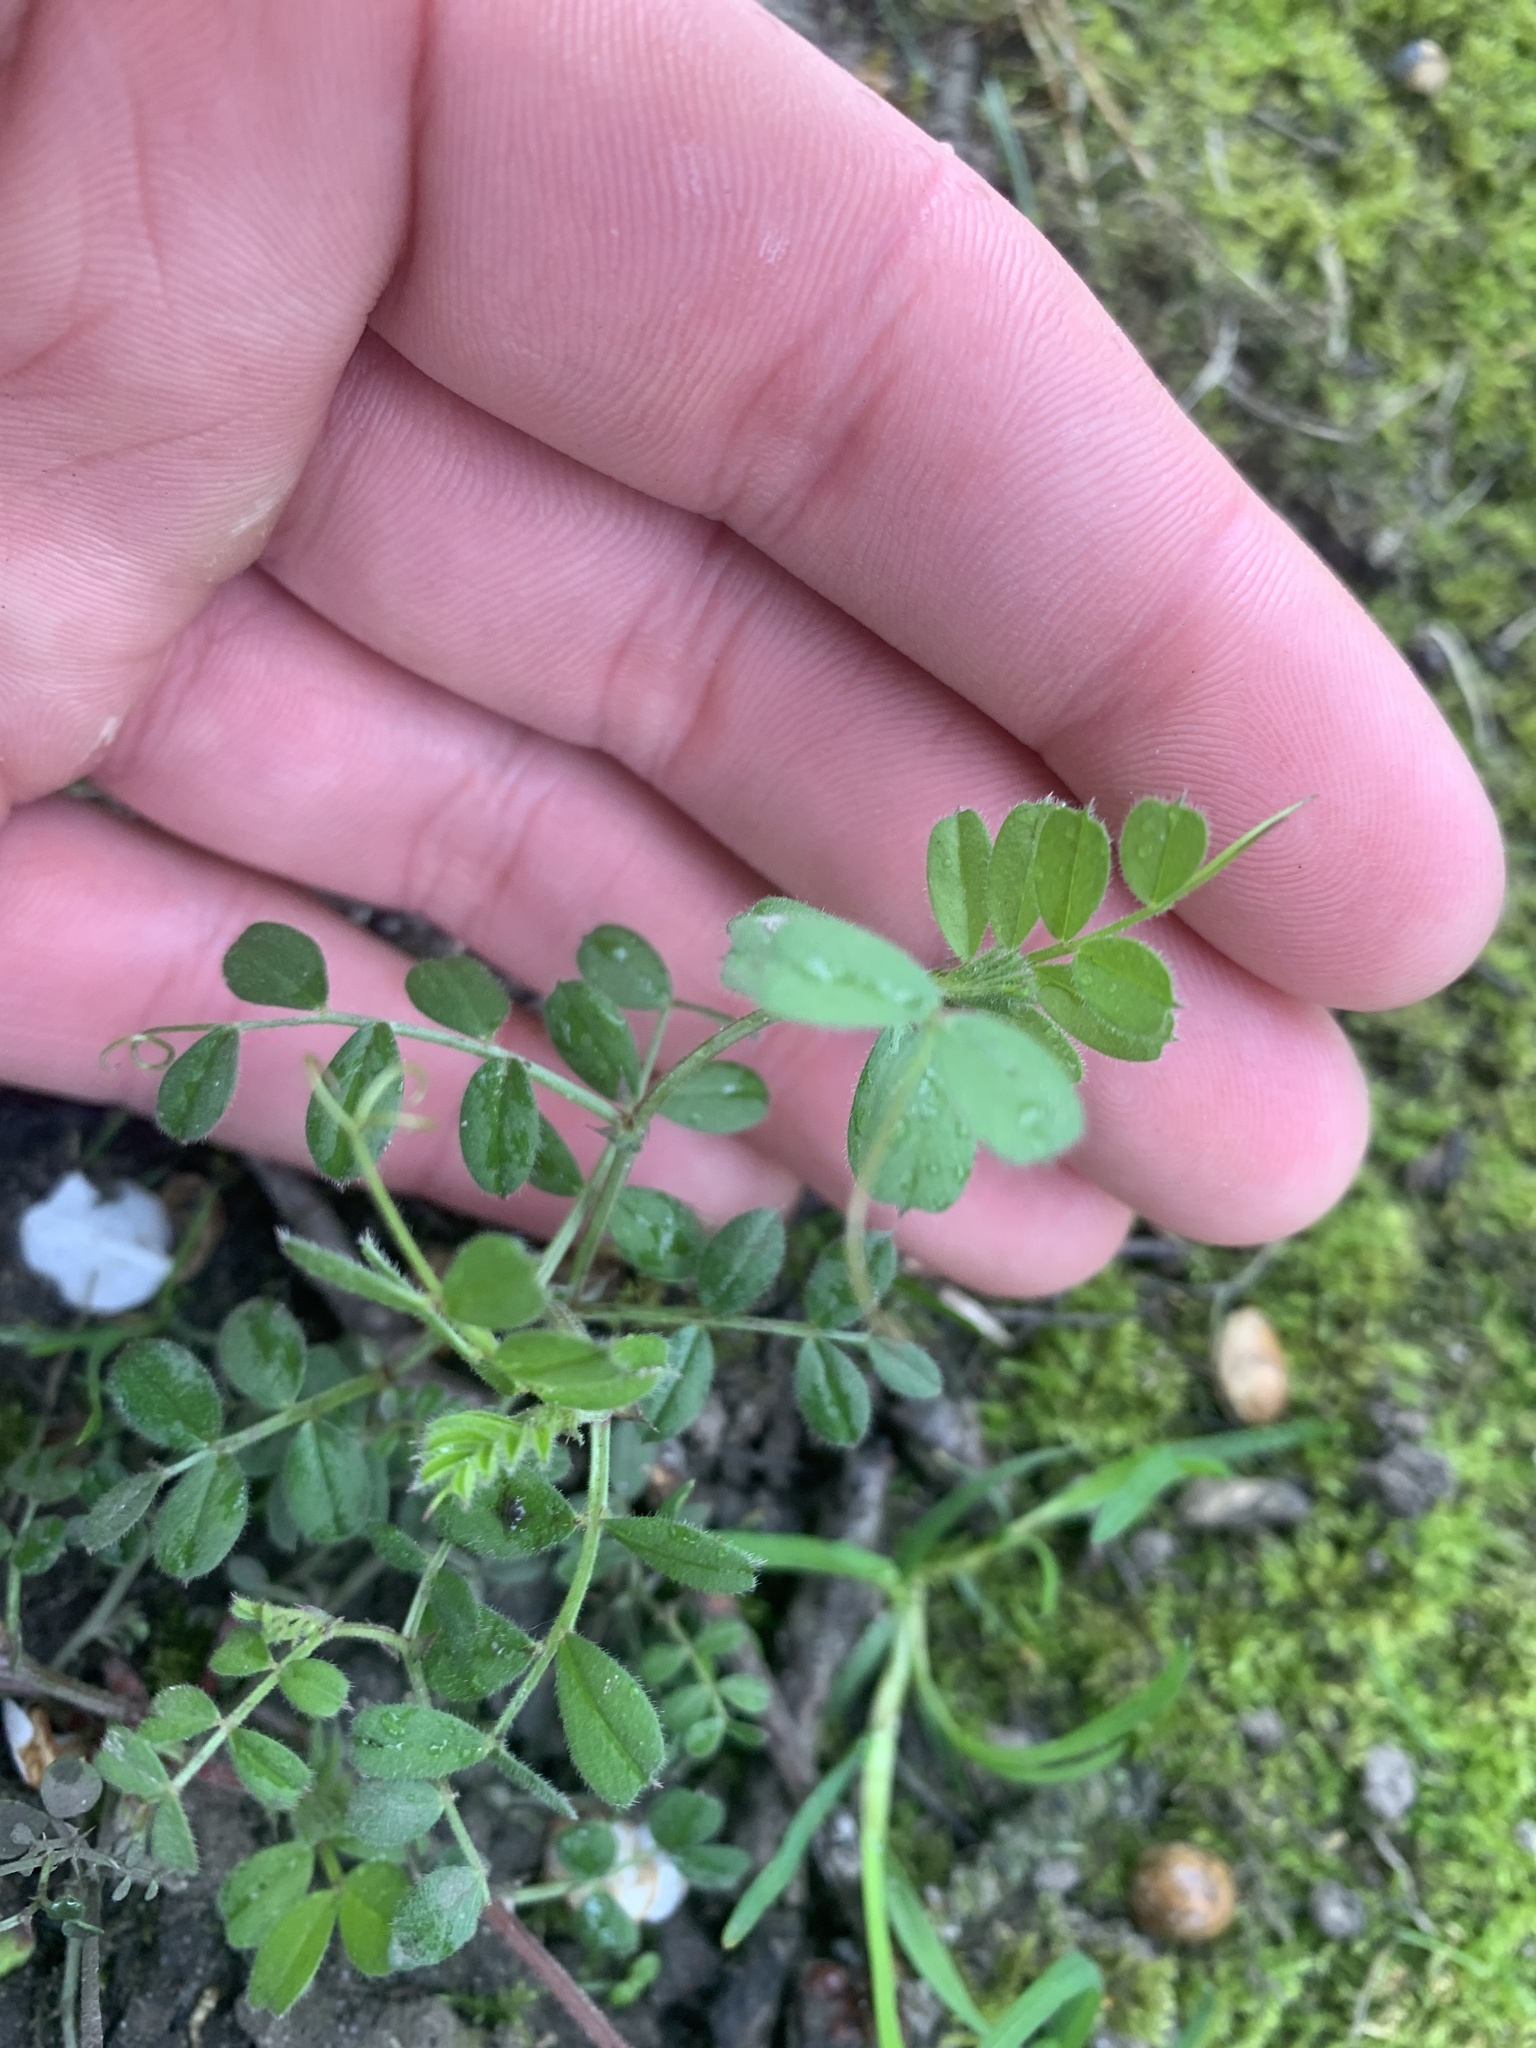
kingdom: Plantae
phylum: Tracheophyta
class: Magnoliopsida
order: Fabales
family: Fabaceae
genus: Vicia
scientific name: Vicia sativa
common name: Garden vetch
